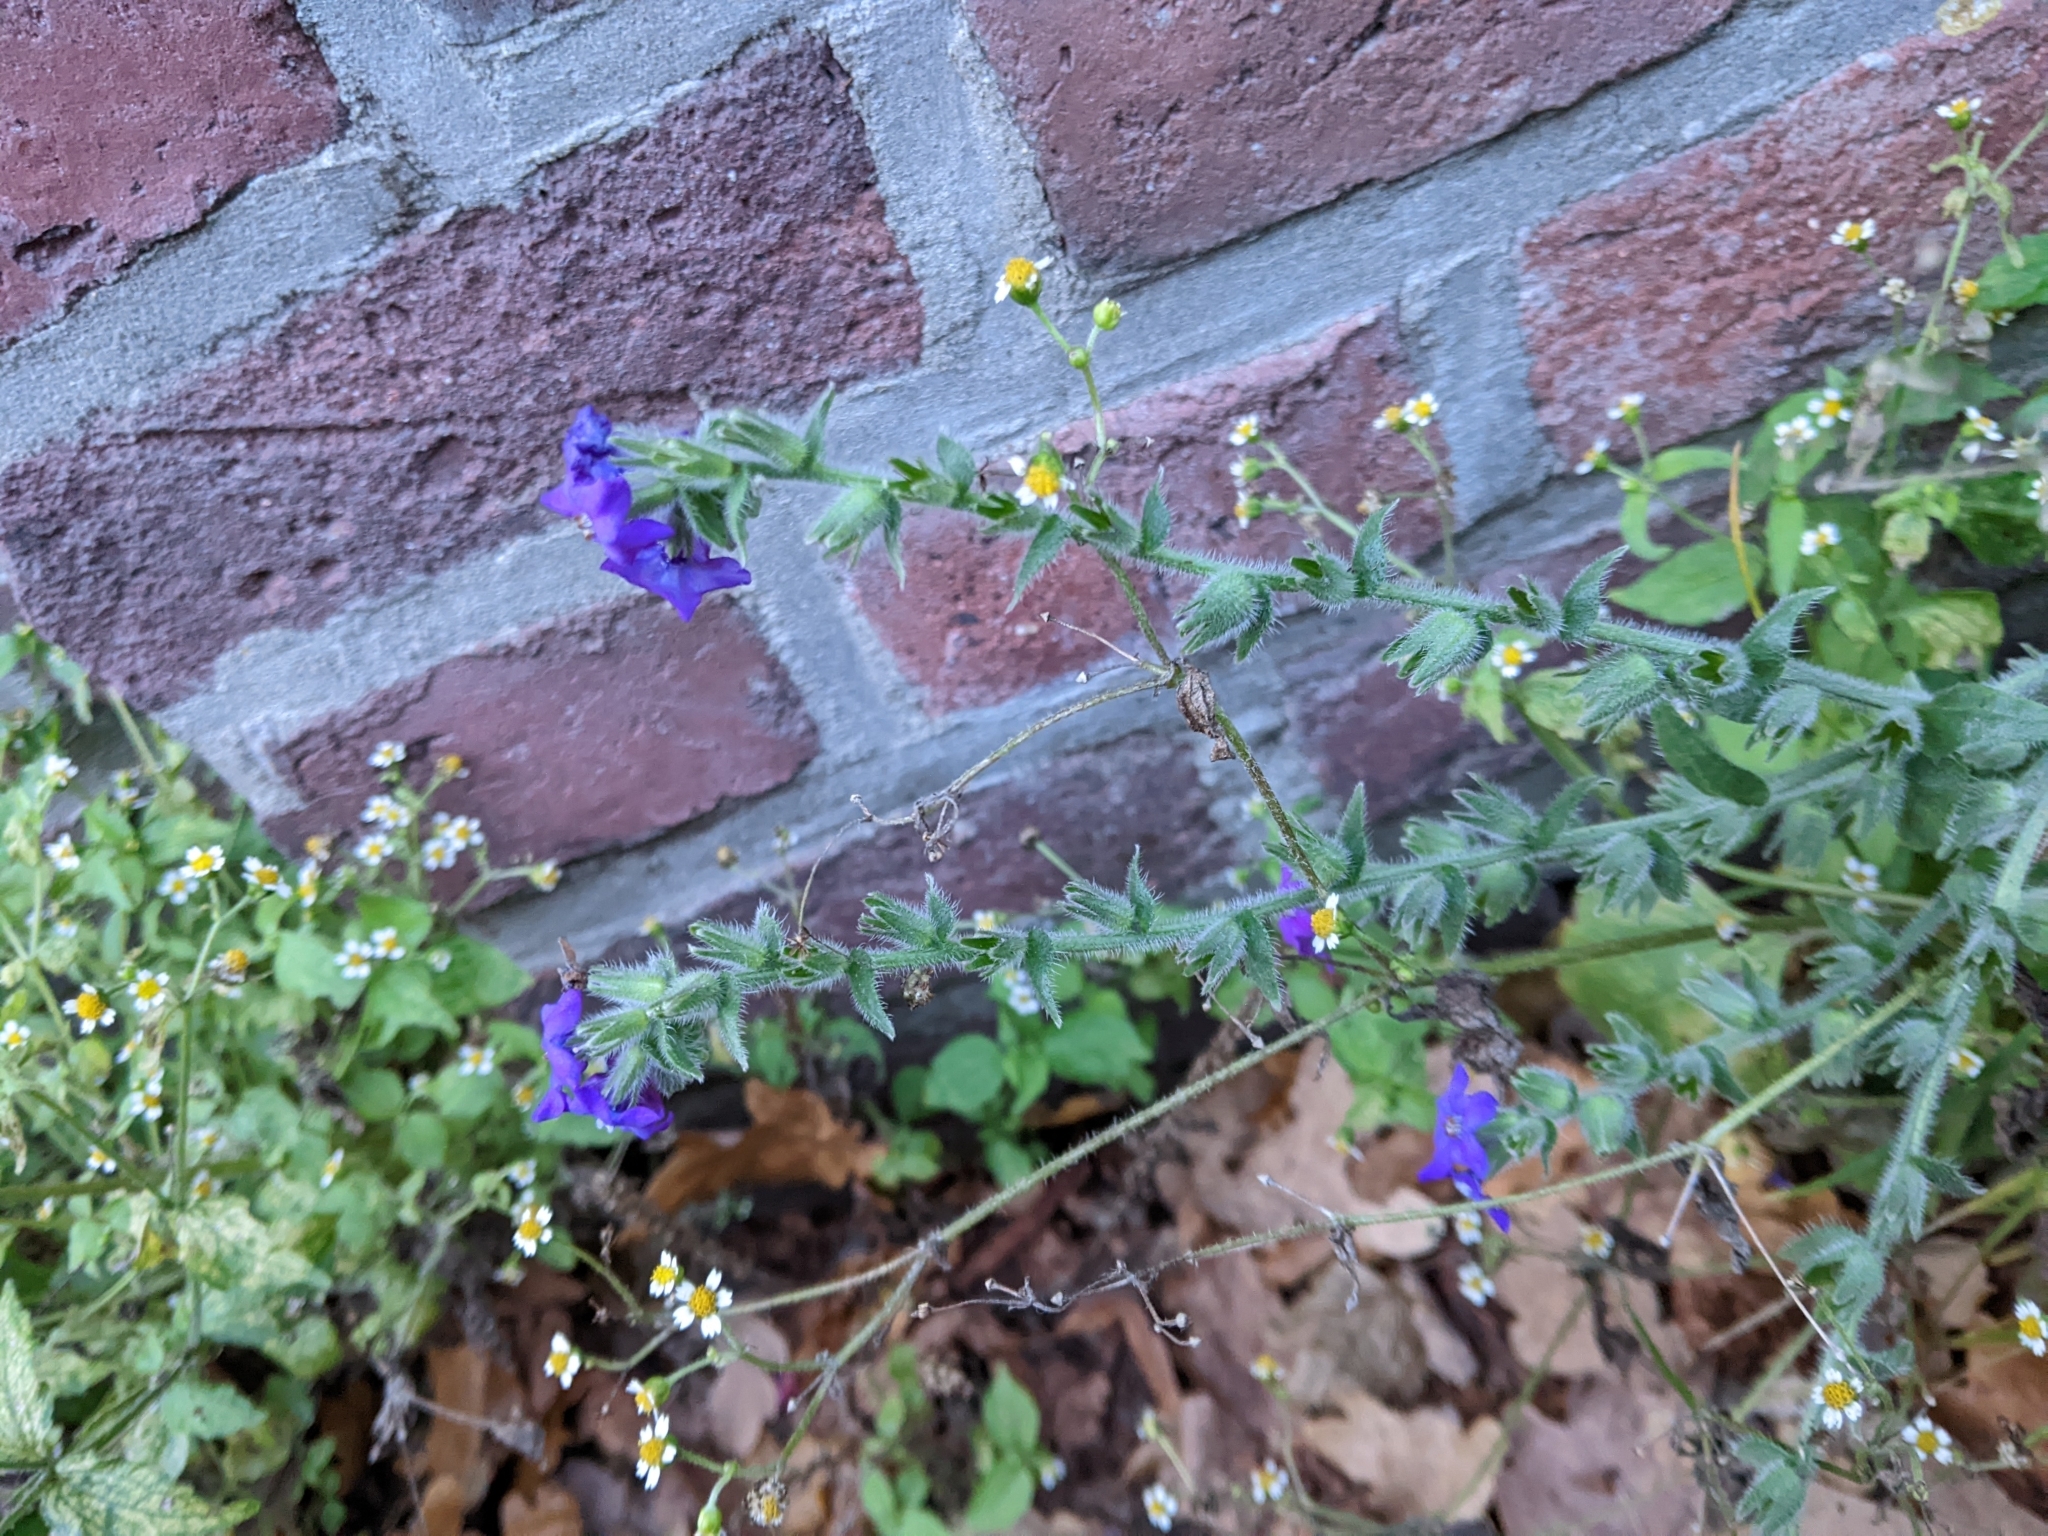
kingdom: Plantae
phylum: Tracheophyta
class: Magnoliopsida
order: Boraginales
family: Boraginaceae
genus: Anchusa
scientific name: Anchusa officinalis
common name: Alkanet
